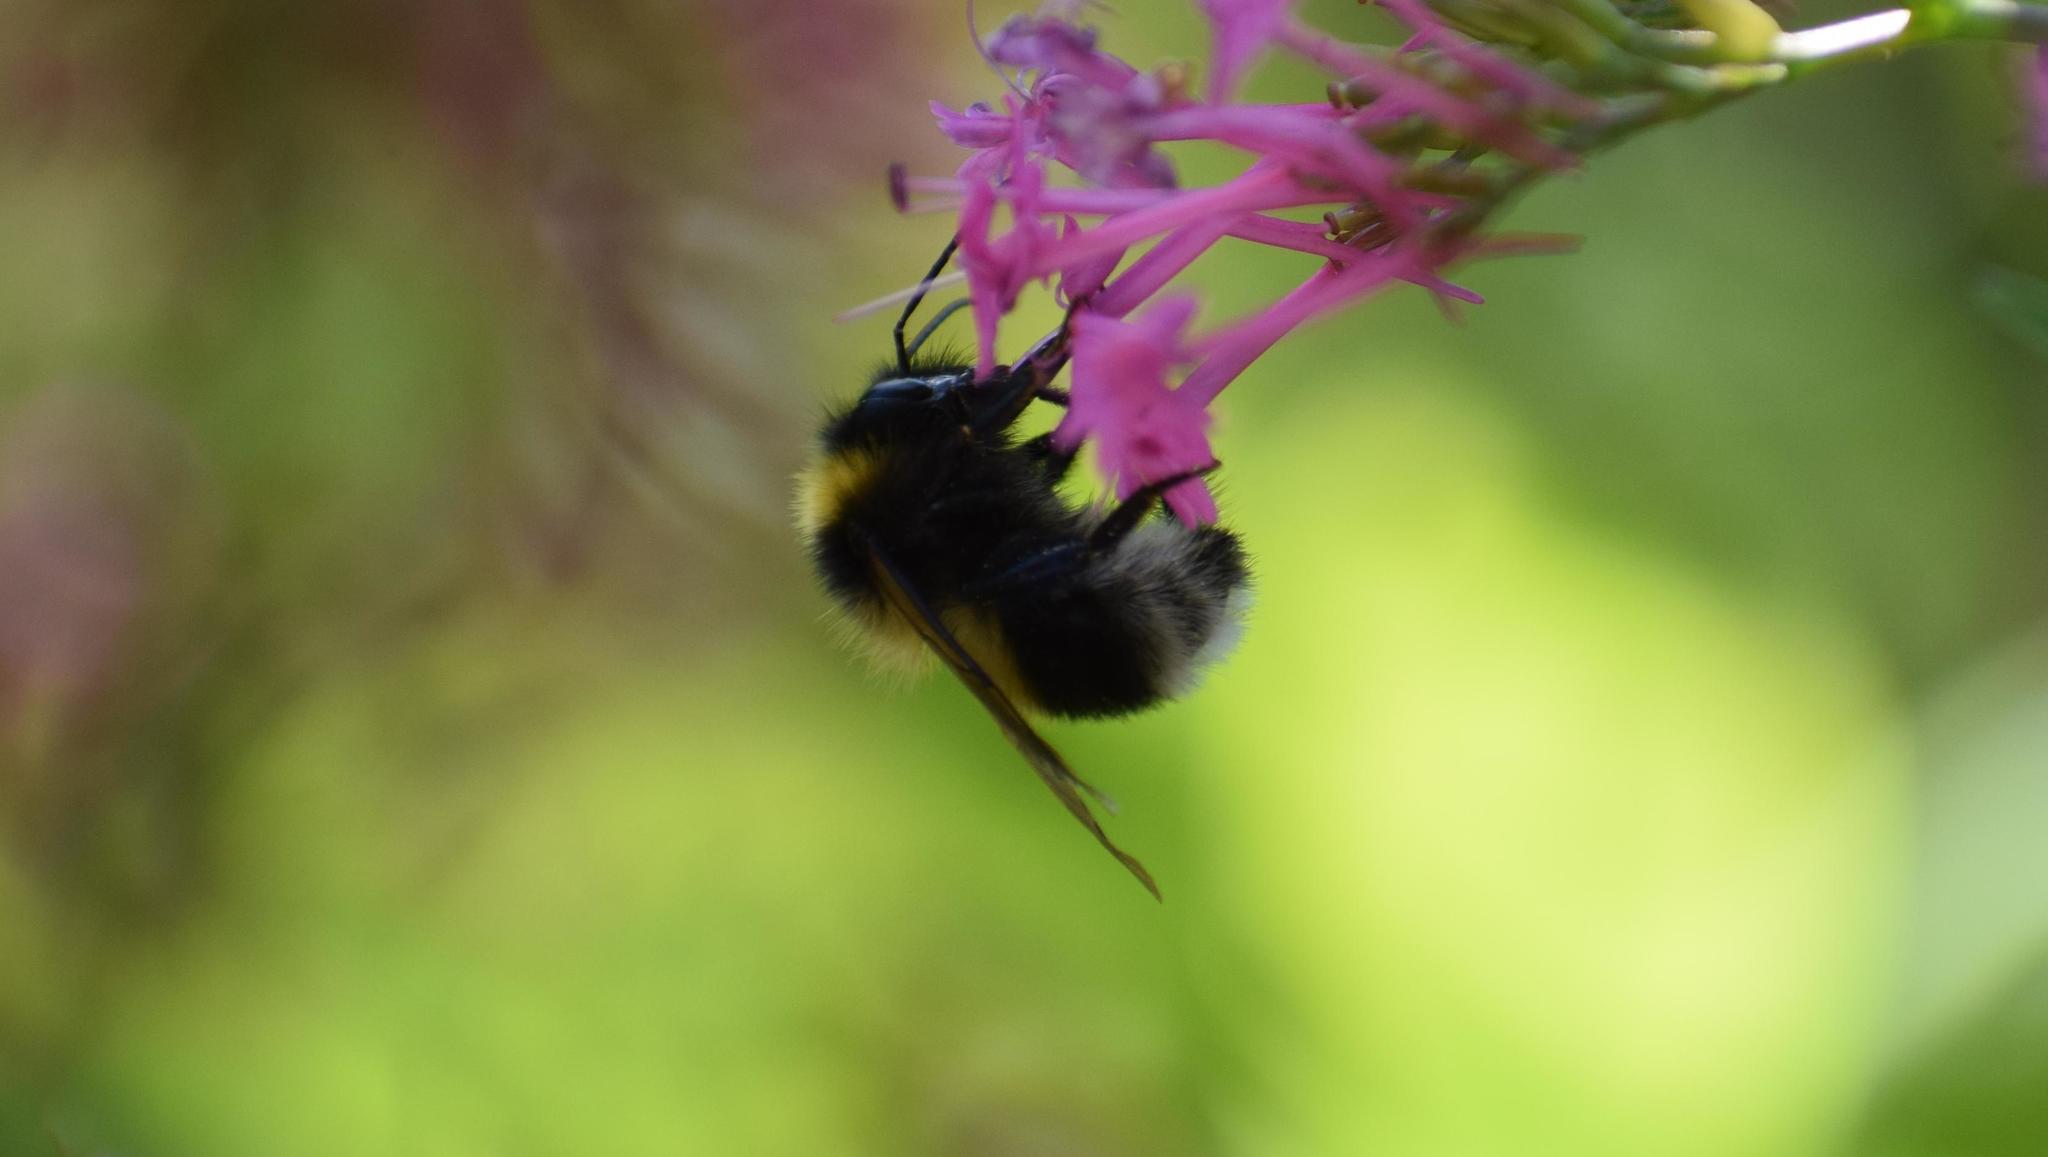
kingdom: Animalia
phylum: Arthropoda
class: Insecta
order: Hymenoptera
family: Apidae
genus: Bombus
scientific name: Bombus hortorum
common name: Garden bumblebee
